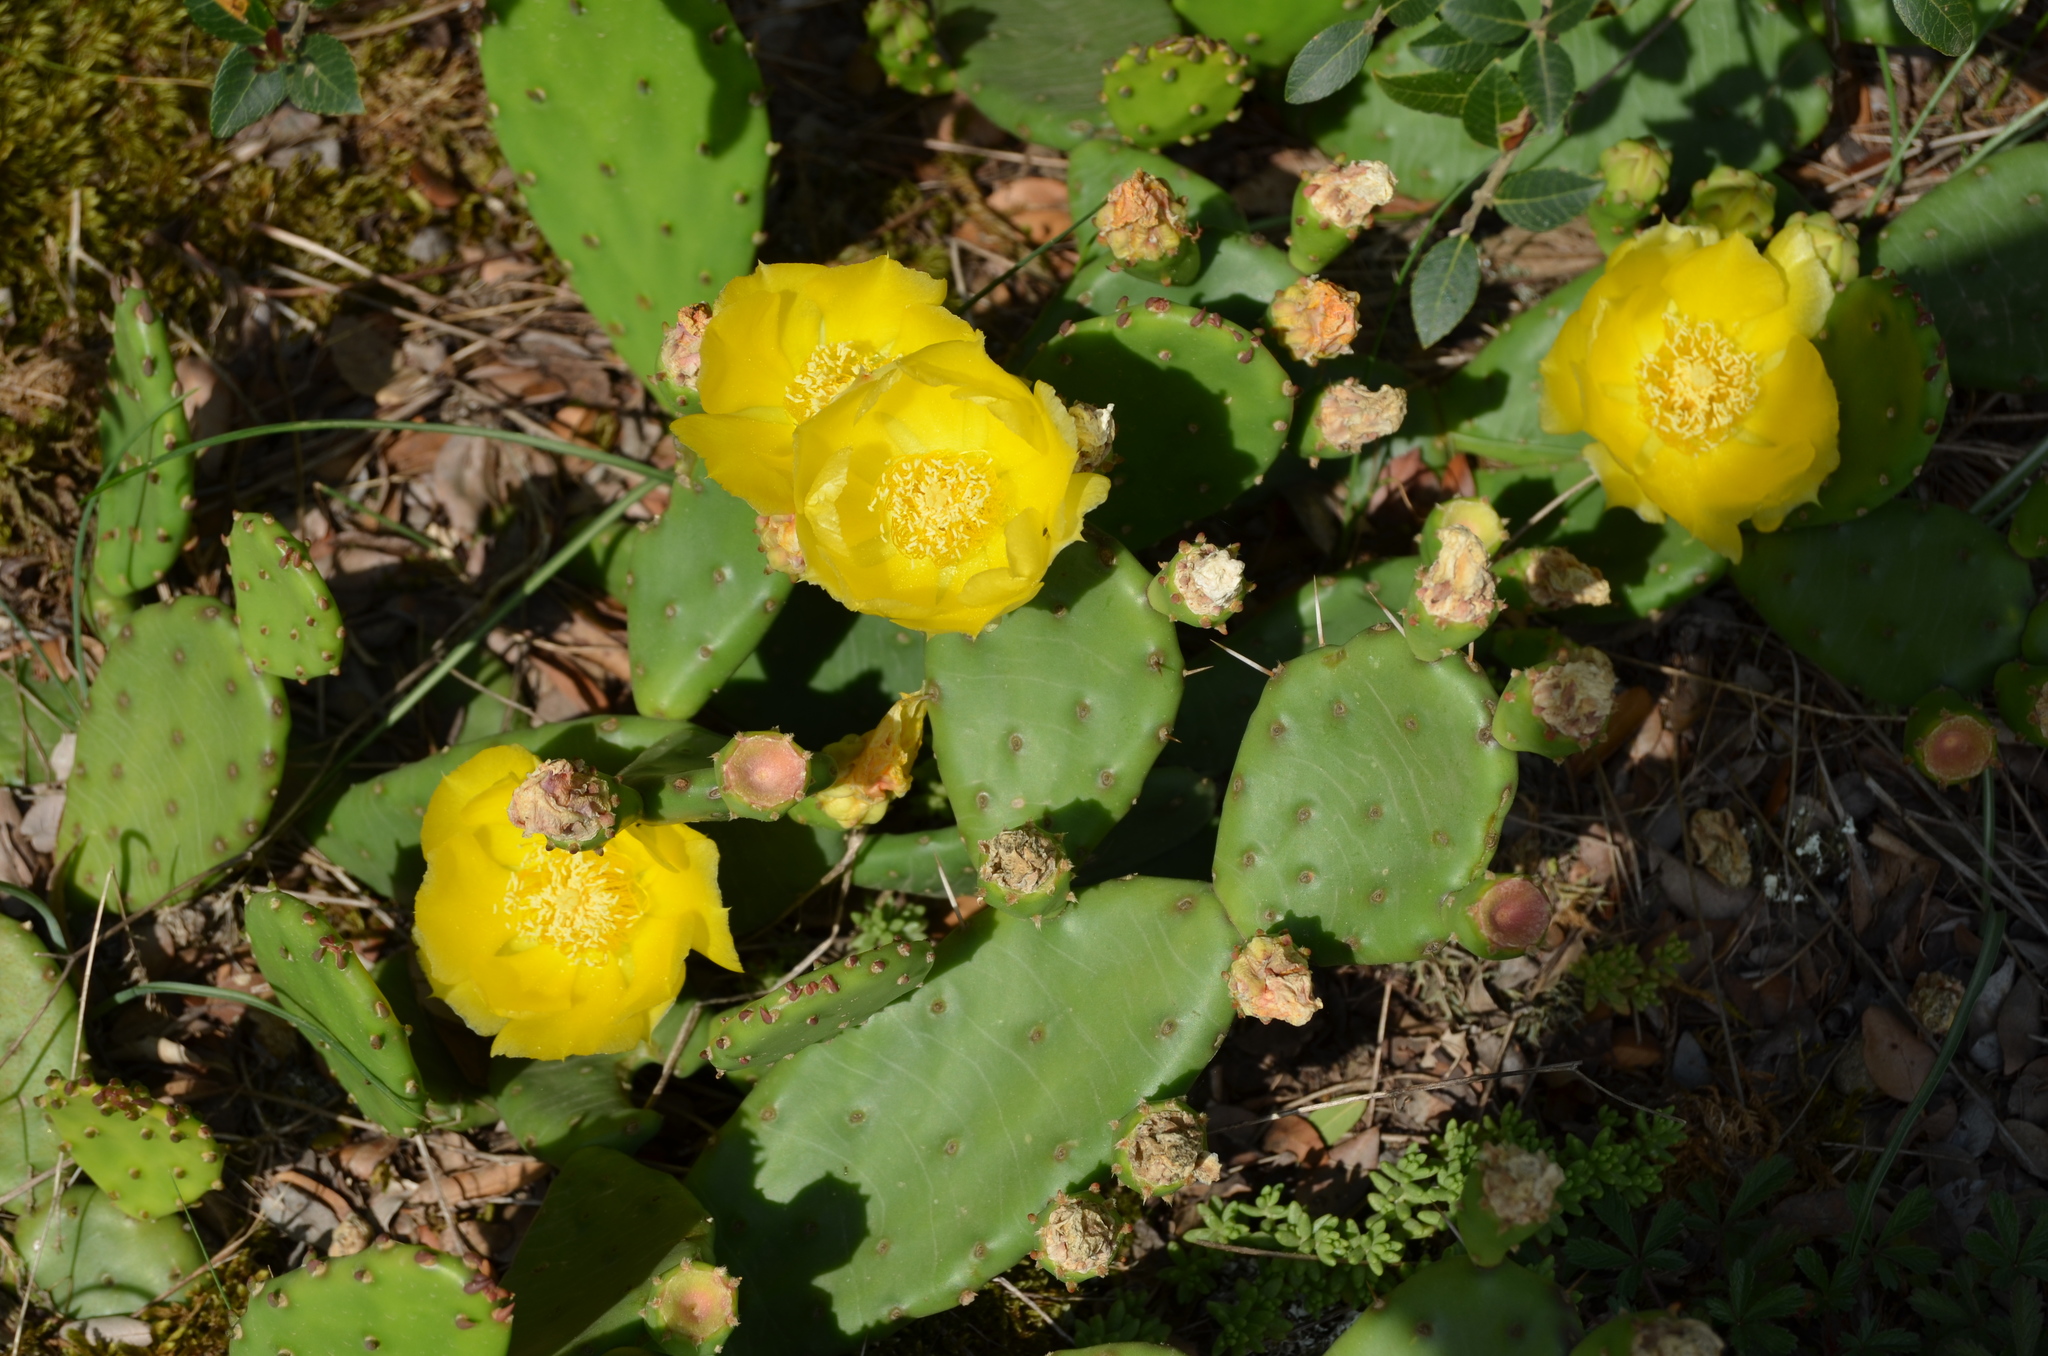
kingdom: Plantae
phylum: Tracheophyta
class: Magnoliopsida
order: Caryophyllales
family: Cactaceae
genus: Opuntia
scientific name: Opuntia humifusa
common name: Eastern prickly-pear
